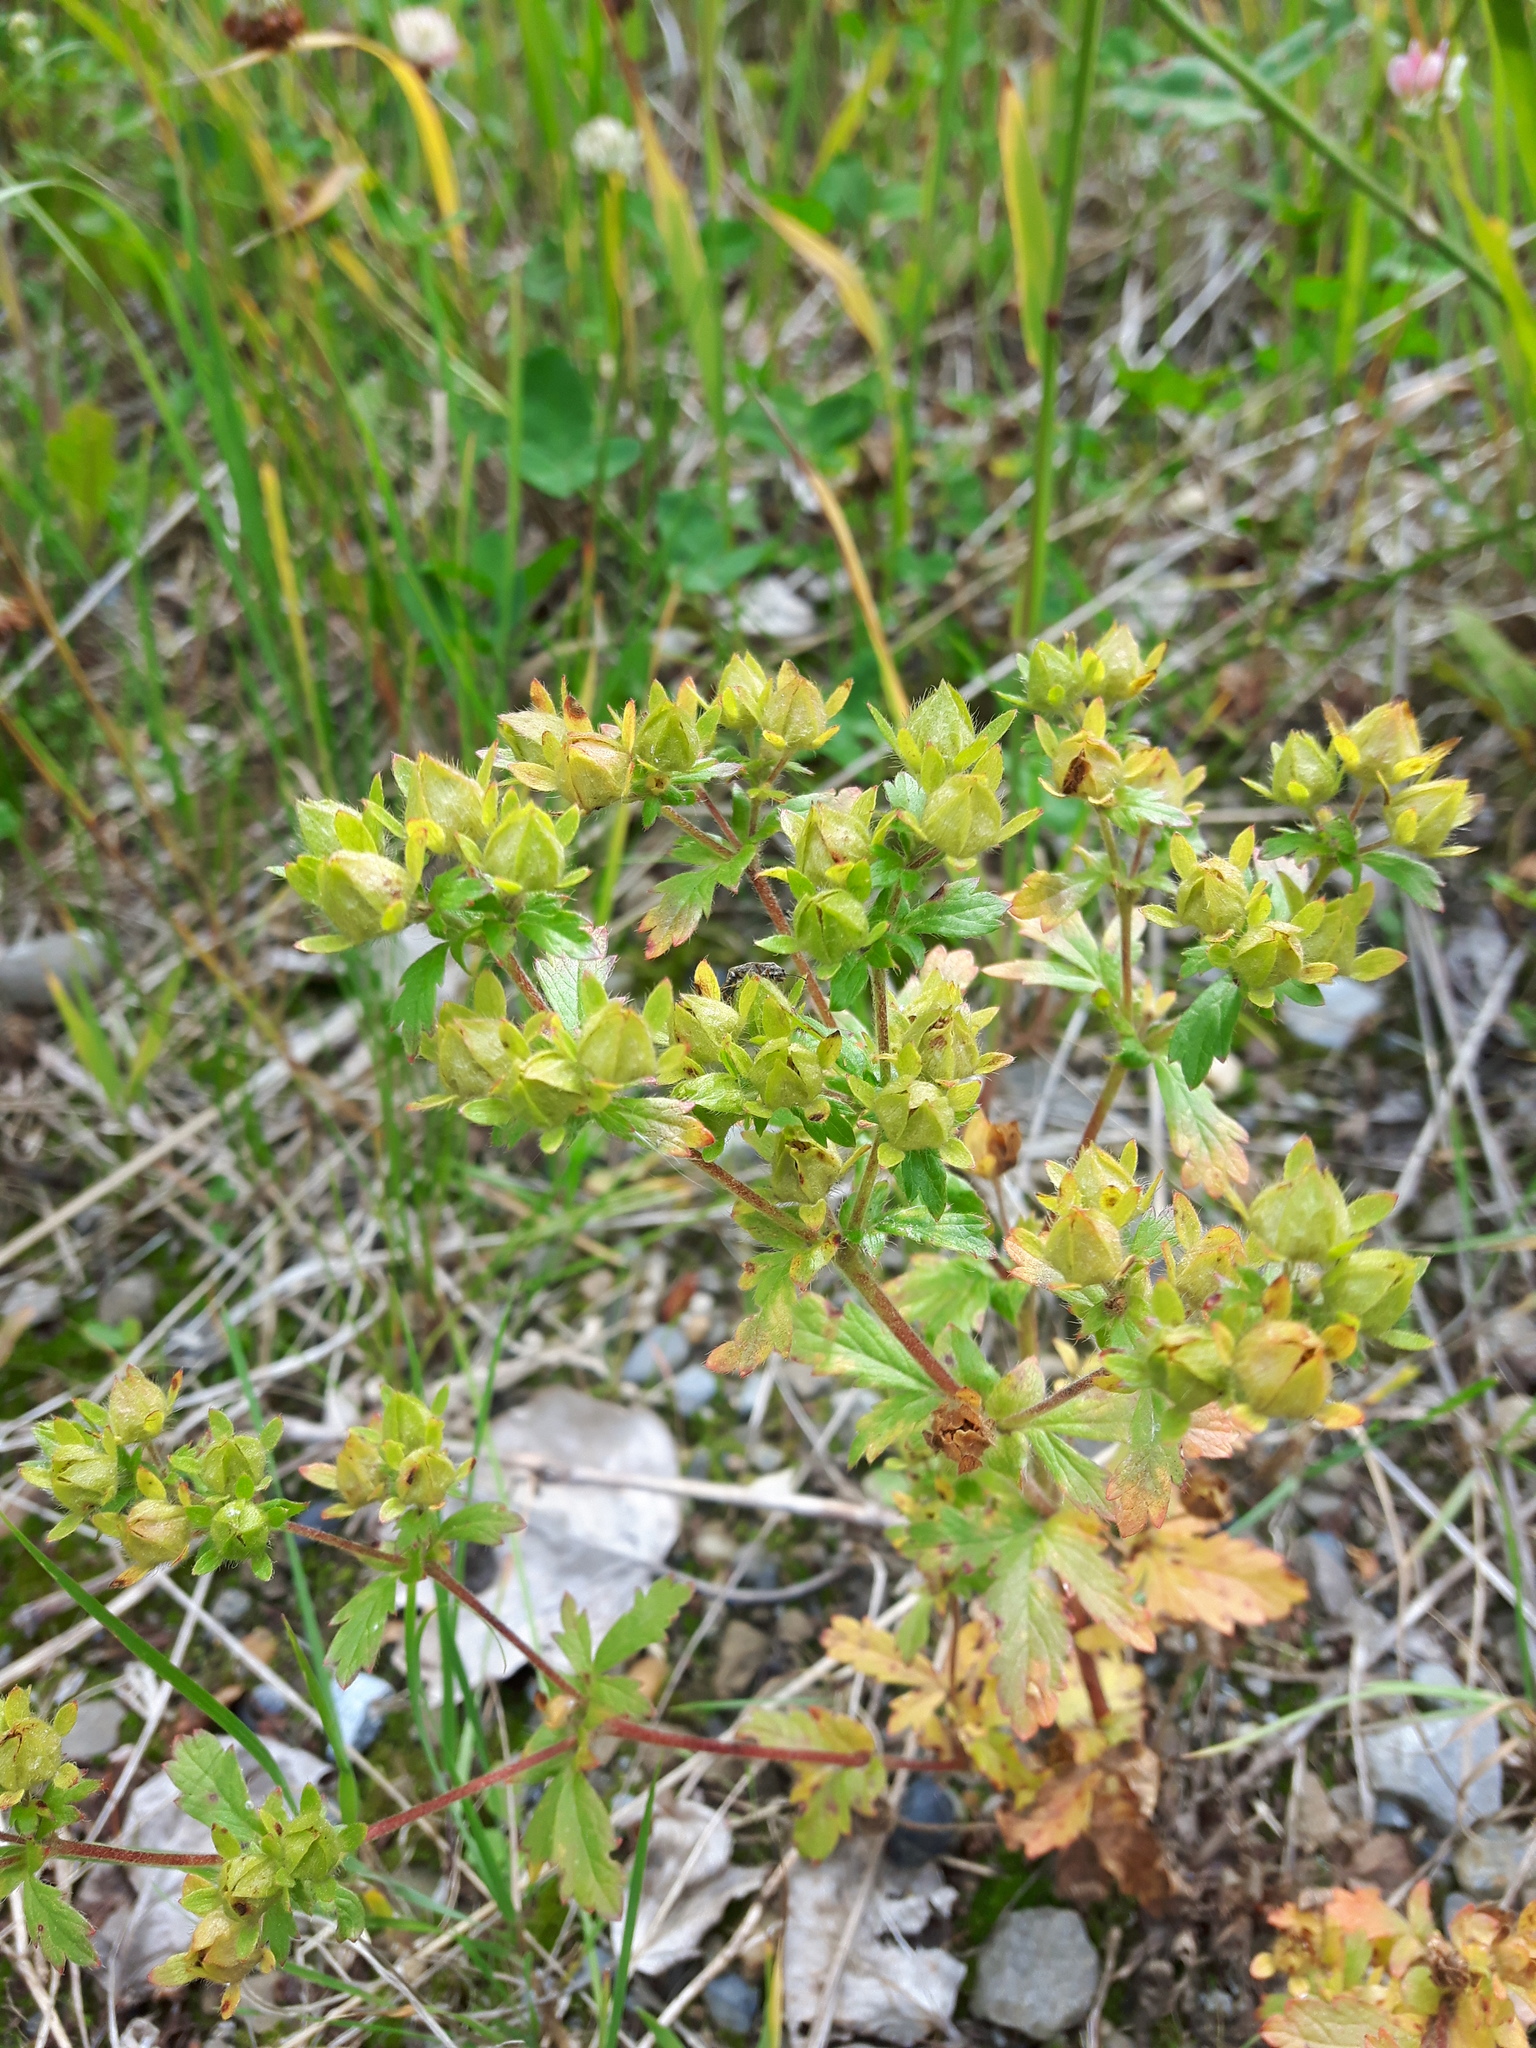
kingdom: Plantae
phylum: Tracheophyta
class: Magnoliopsida
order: Rosales
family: Rosaceae
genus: Potentilla
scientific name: Potentilla norvegica
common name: Ternate-leaved cinquefoil
